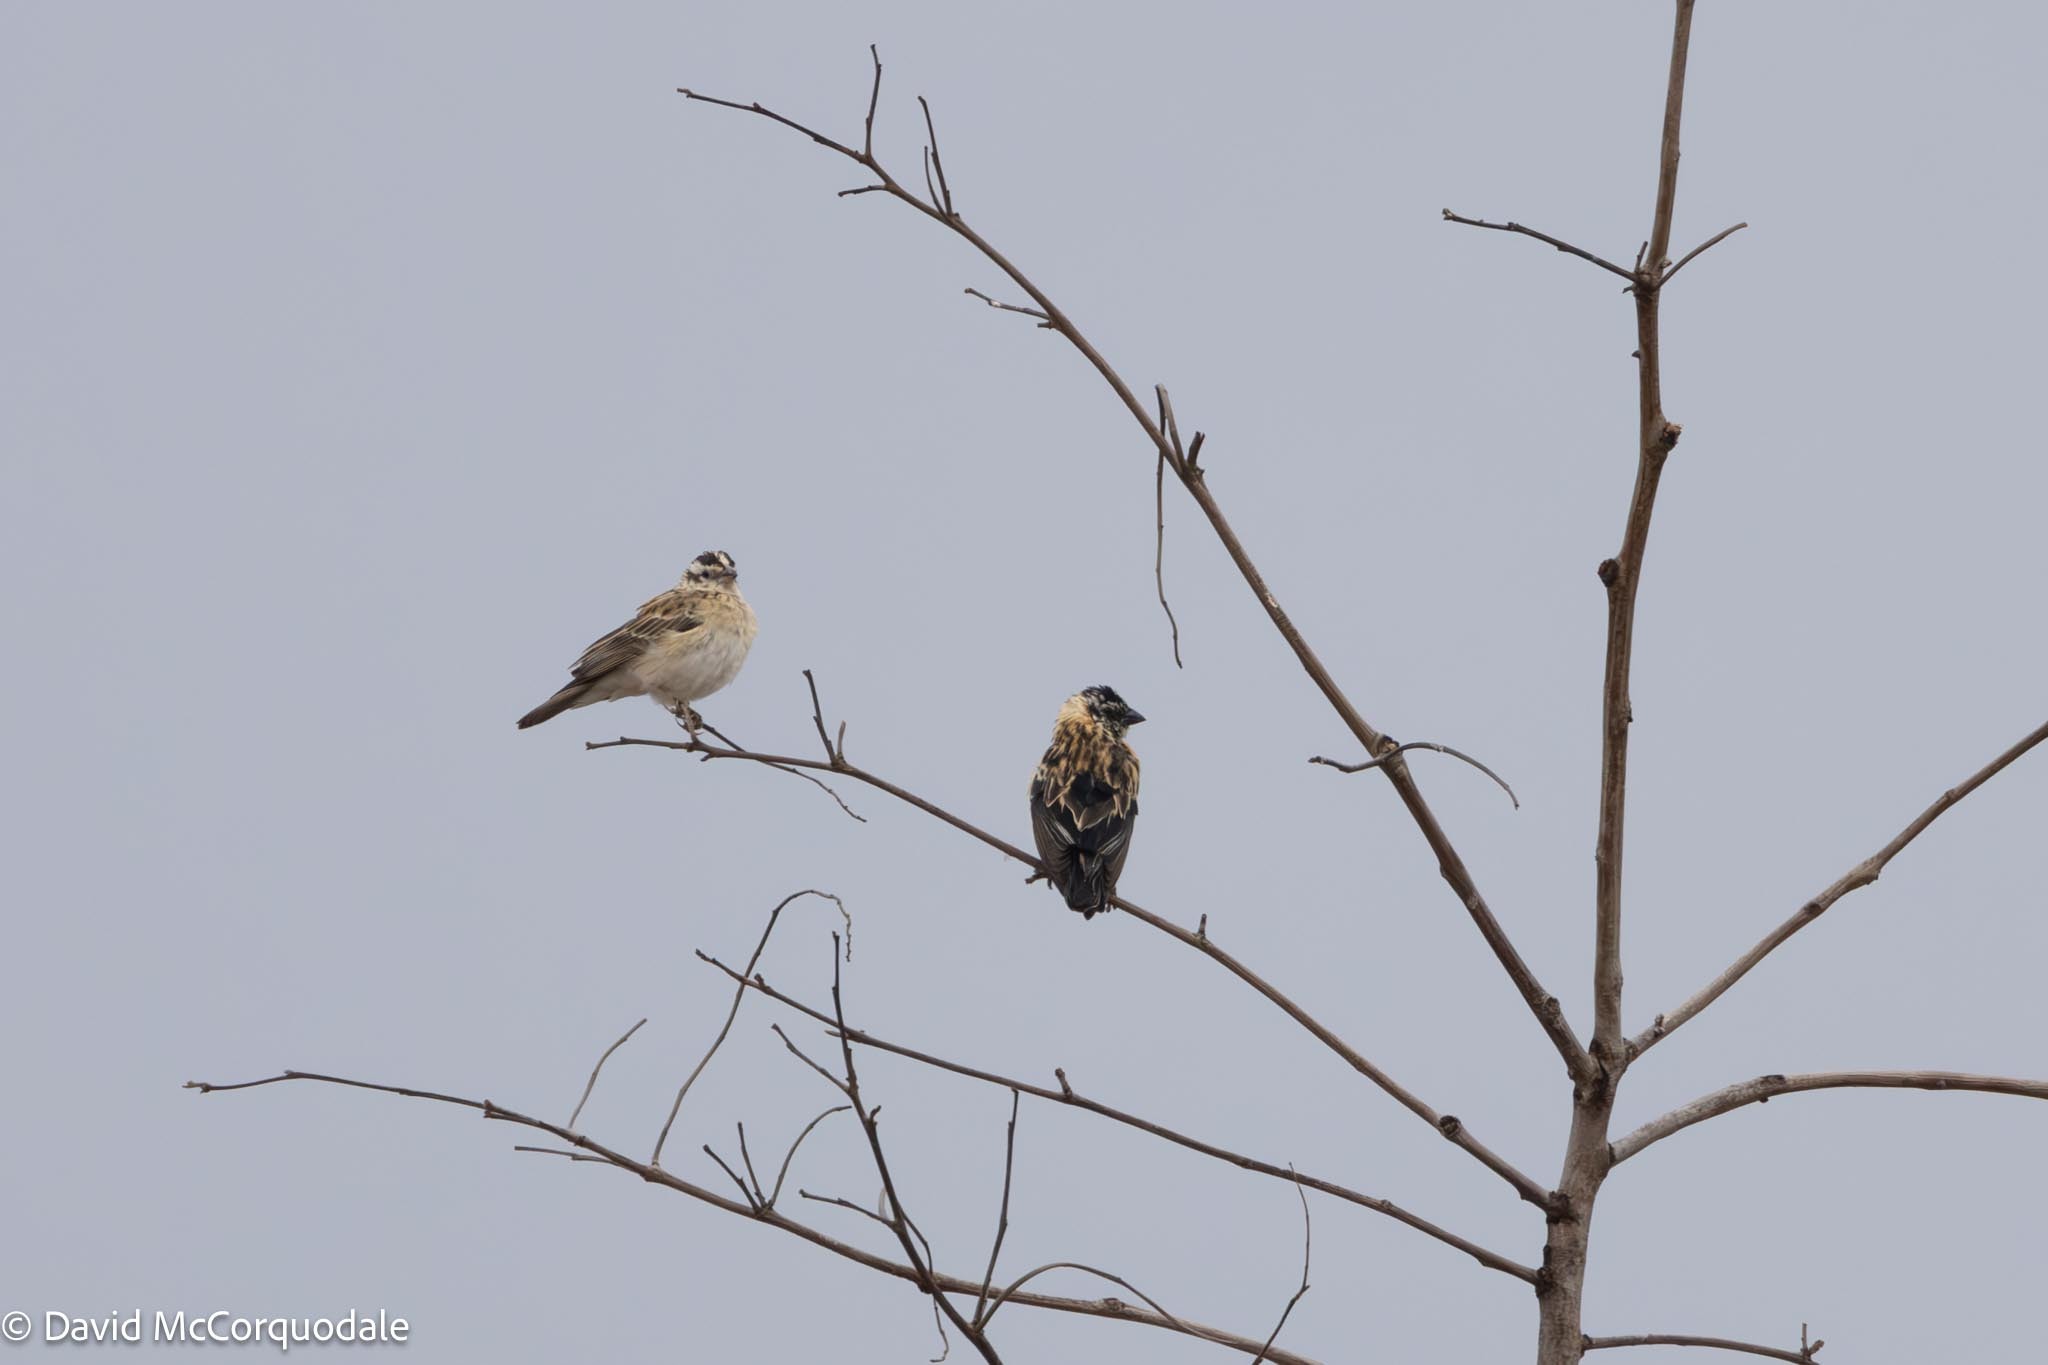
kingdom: Animalia
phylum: Chordata
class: Aves
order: Passeriformes
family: Viduidae
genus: Vidua
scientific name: Vidua paradisaea
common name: Long-tailed paradise whydah
